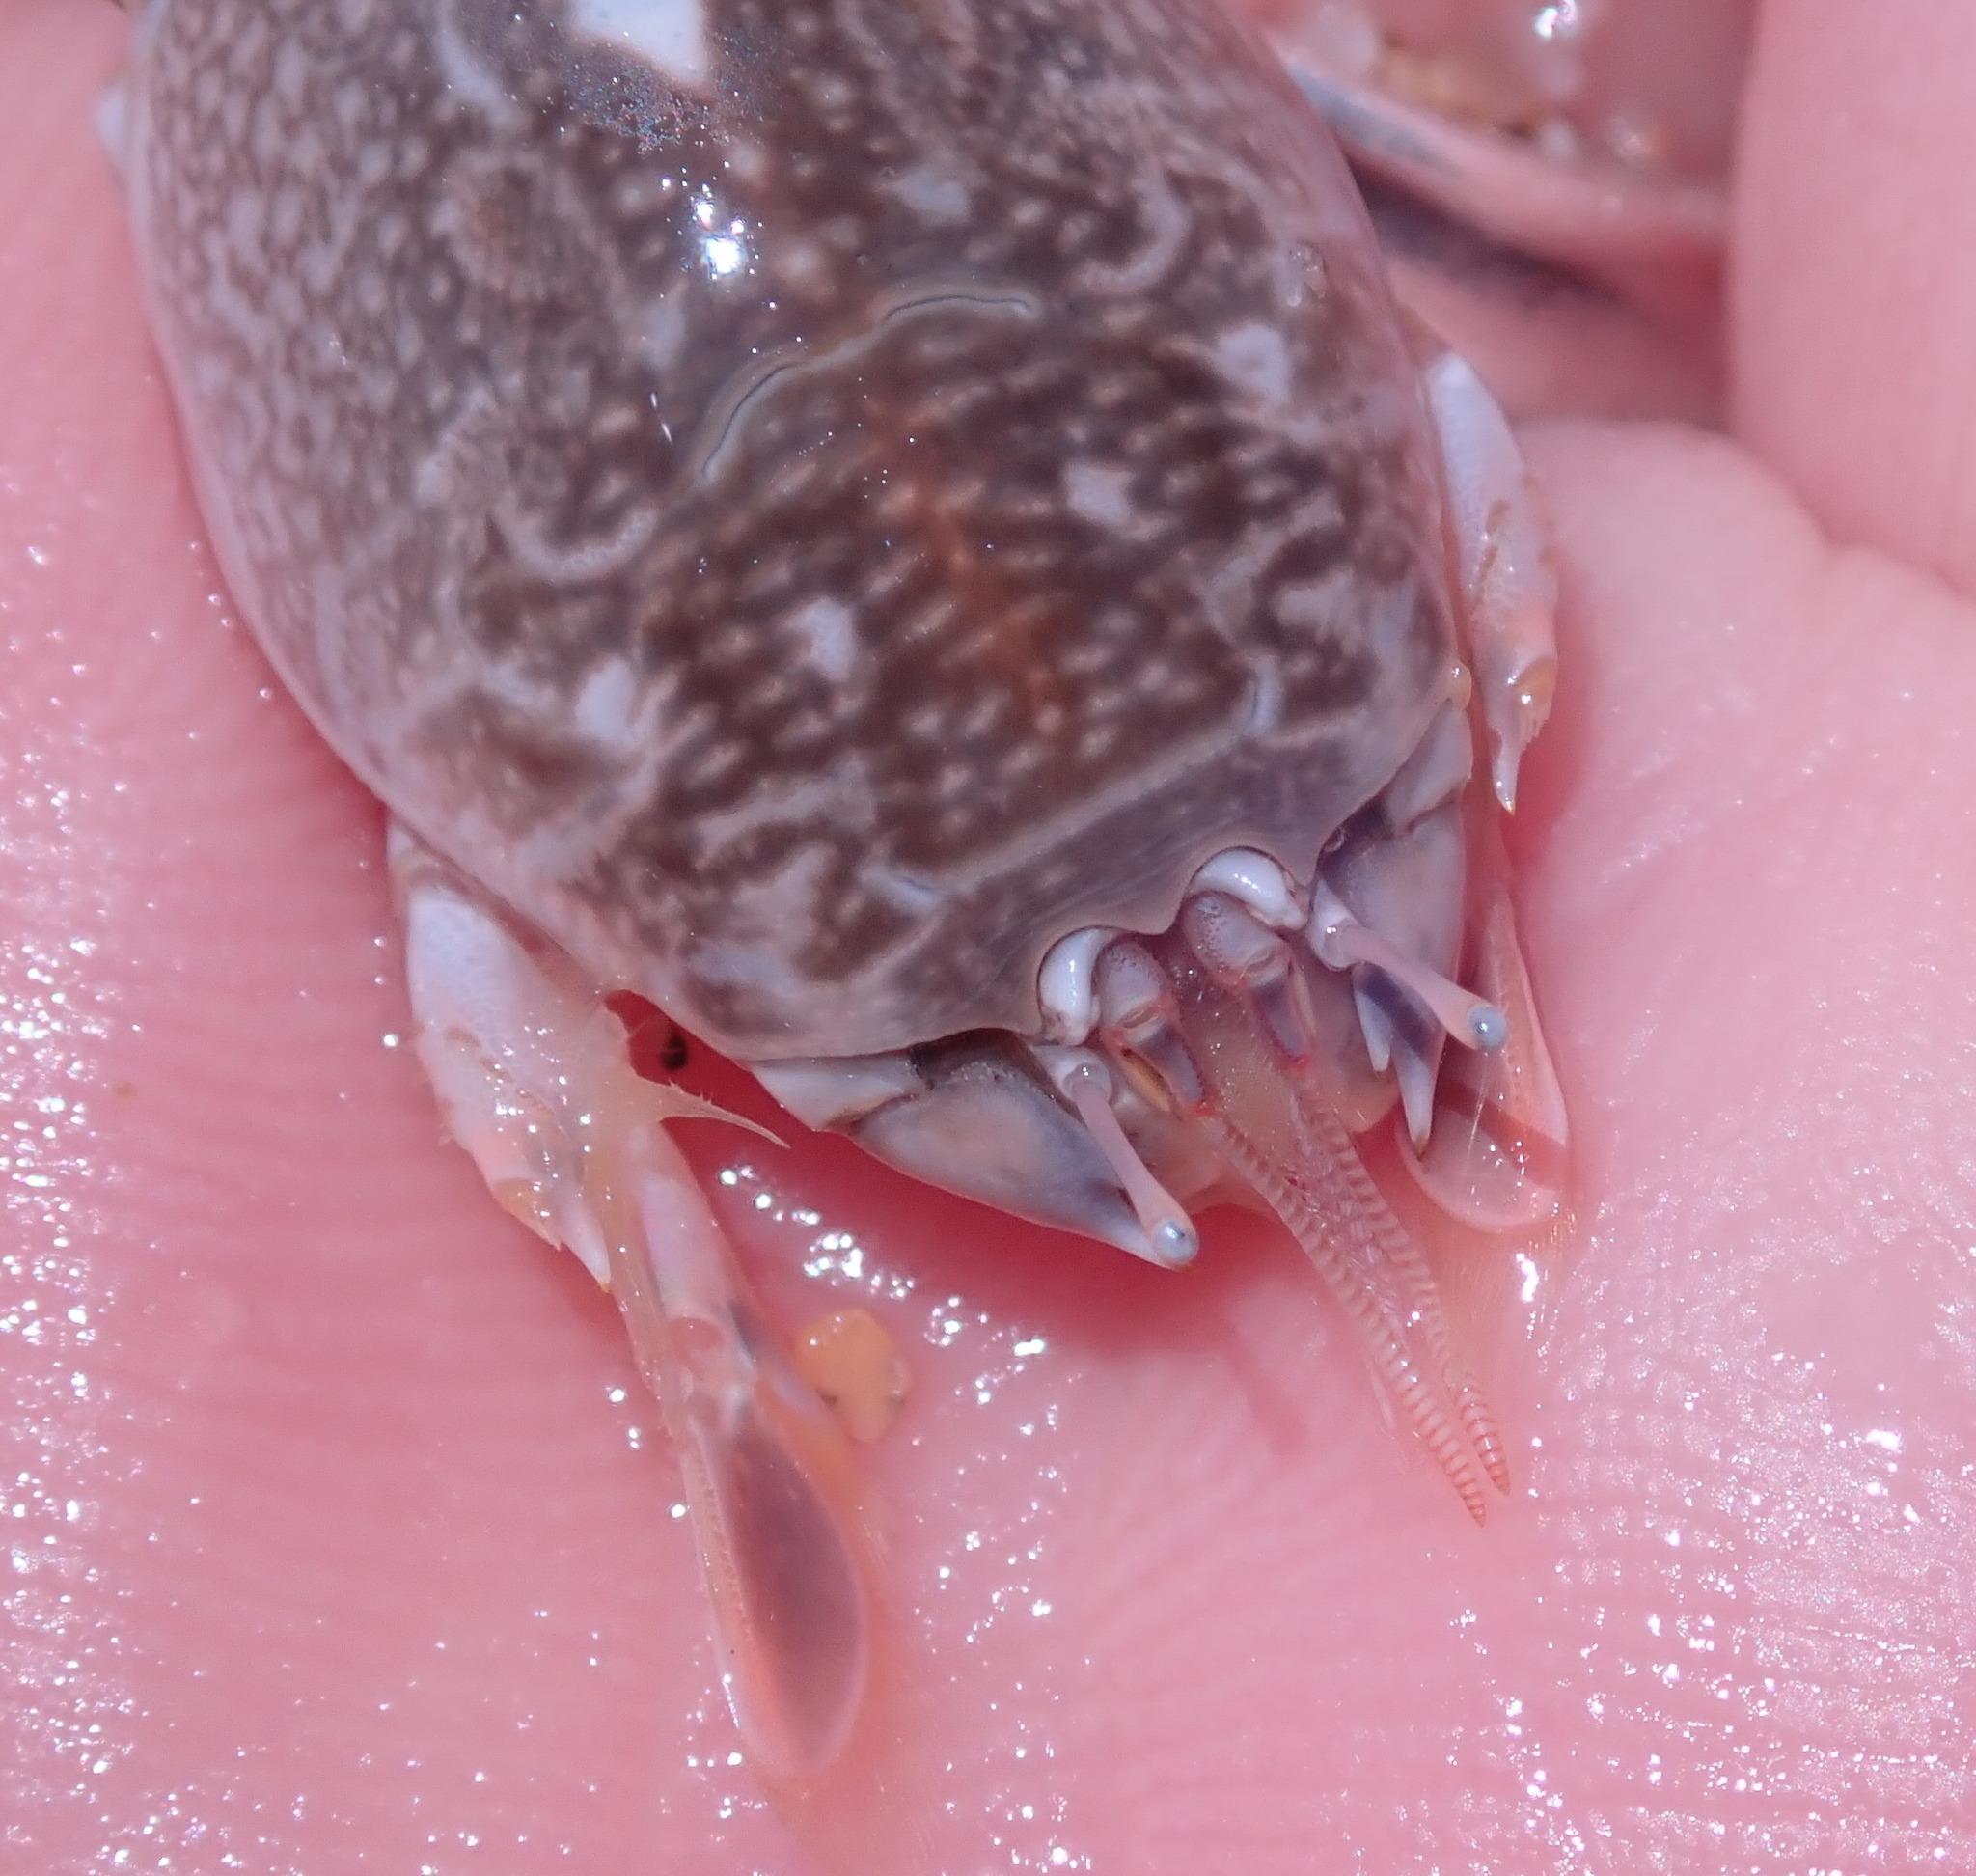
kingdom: Animalia
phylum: Arthropoda
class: Malacostraca
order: Decapoda
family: Hippidae
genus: Emerita
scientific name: Emerita analoga
